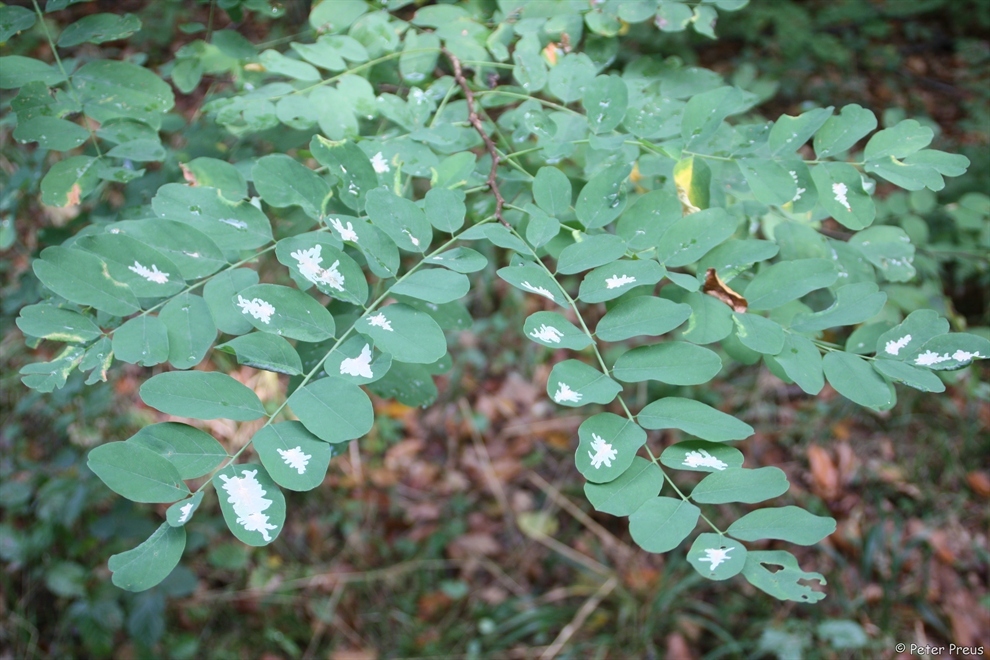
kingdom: Animalia
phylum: Arthropoda
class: Insecta
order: Lepidoptera
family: Gracillariidae
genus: Parectopa
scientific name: Parectopa robiniella
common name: Locust digitate leafminer
